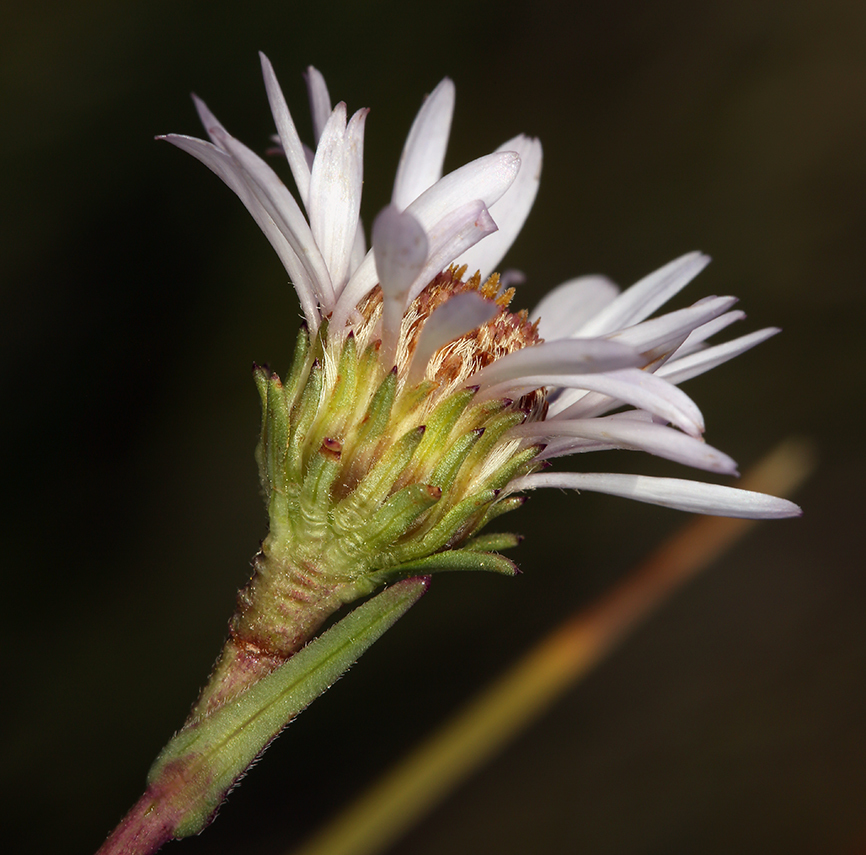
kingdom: Plantae
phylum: Tracheophyta
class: Magnoliopsida
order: Asterales
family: Asteraceae
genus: Symphyotrichum
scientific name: Symphyotrichum spathulatum
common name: Western mountain aster
